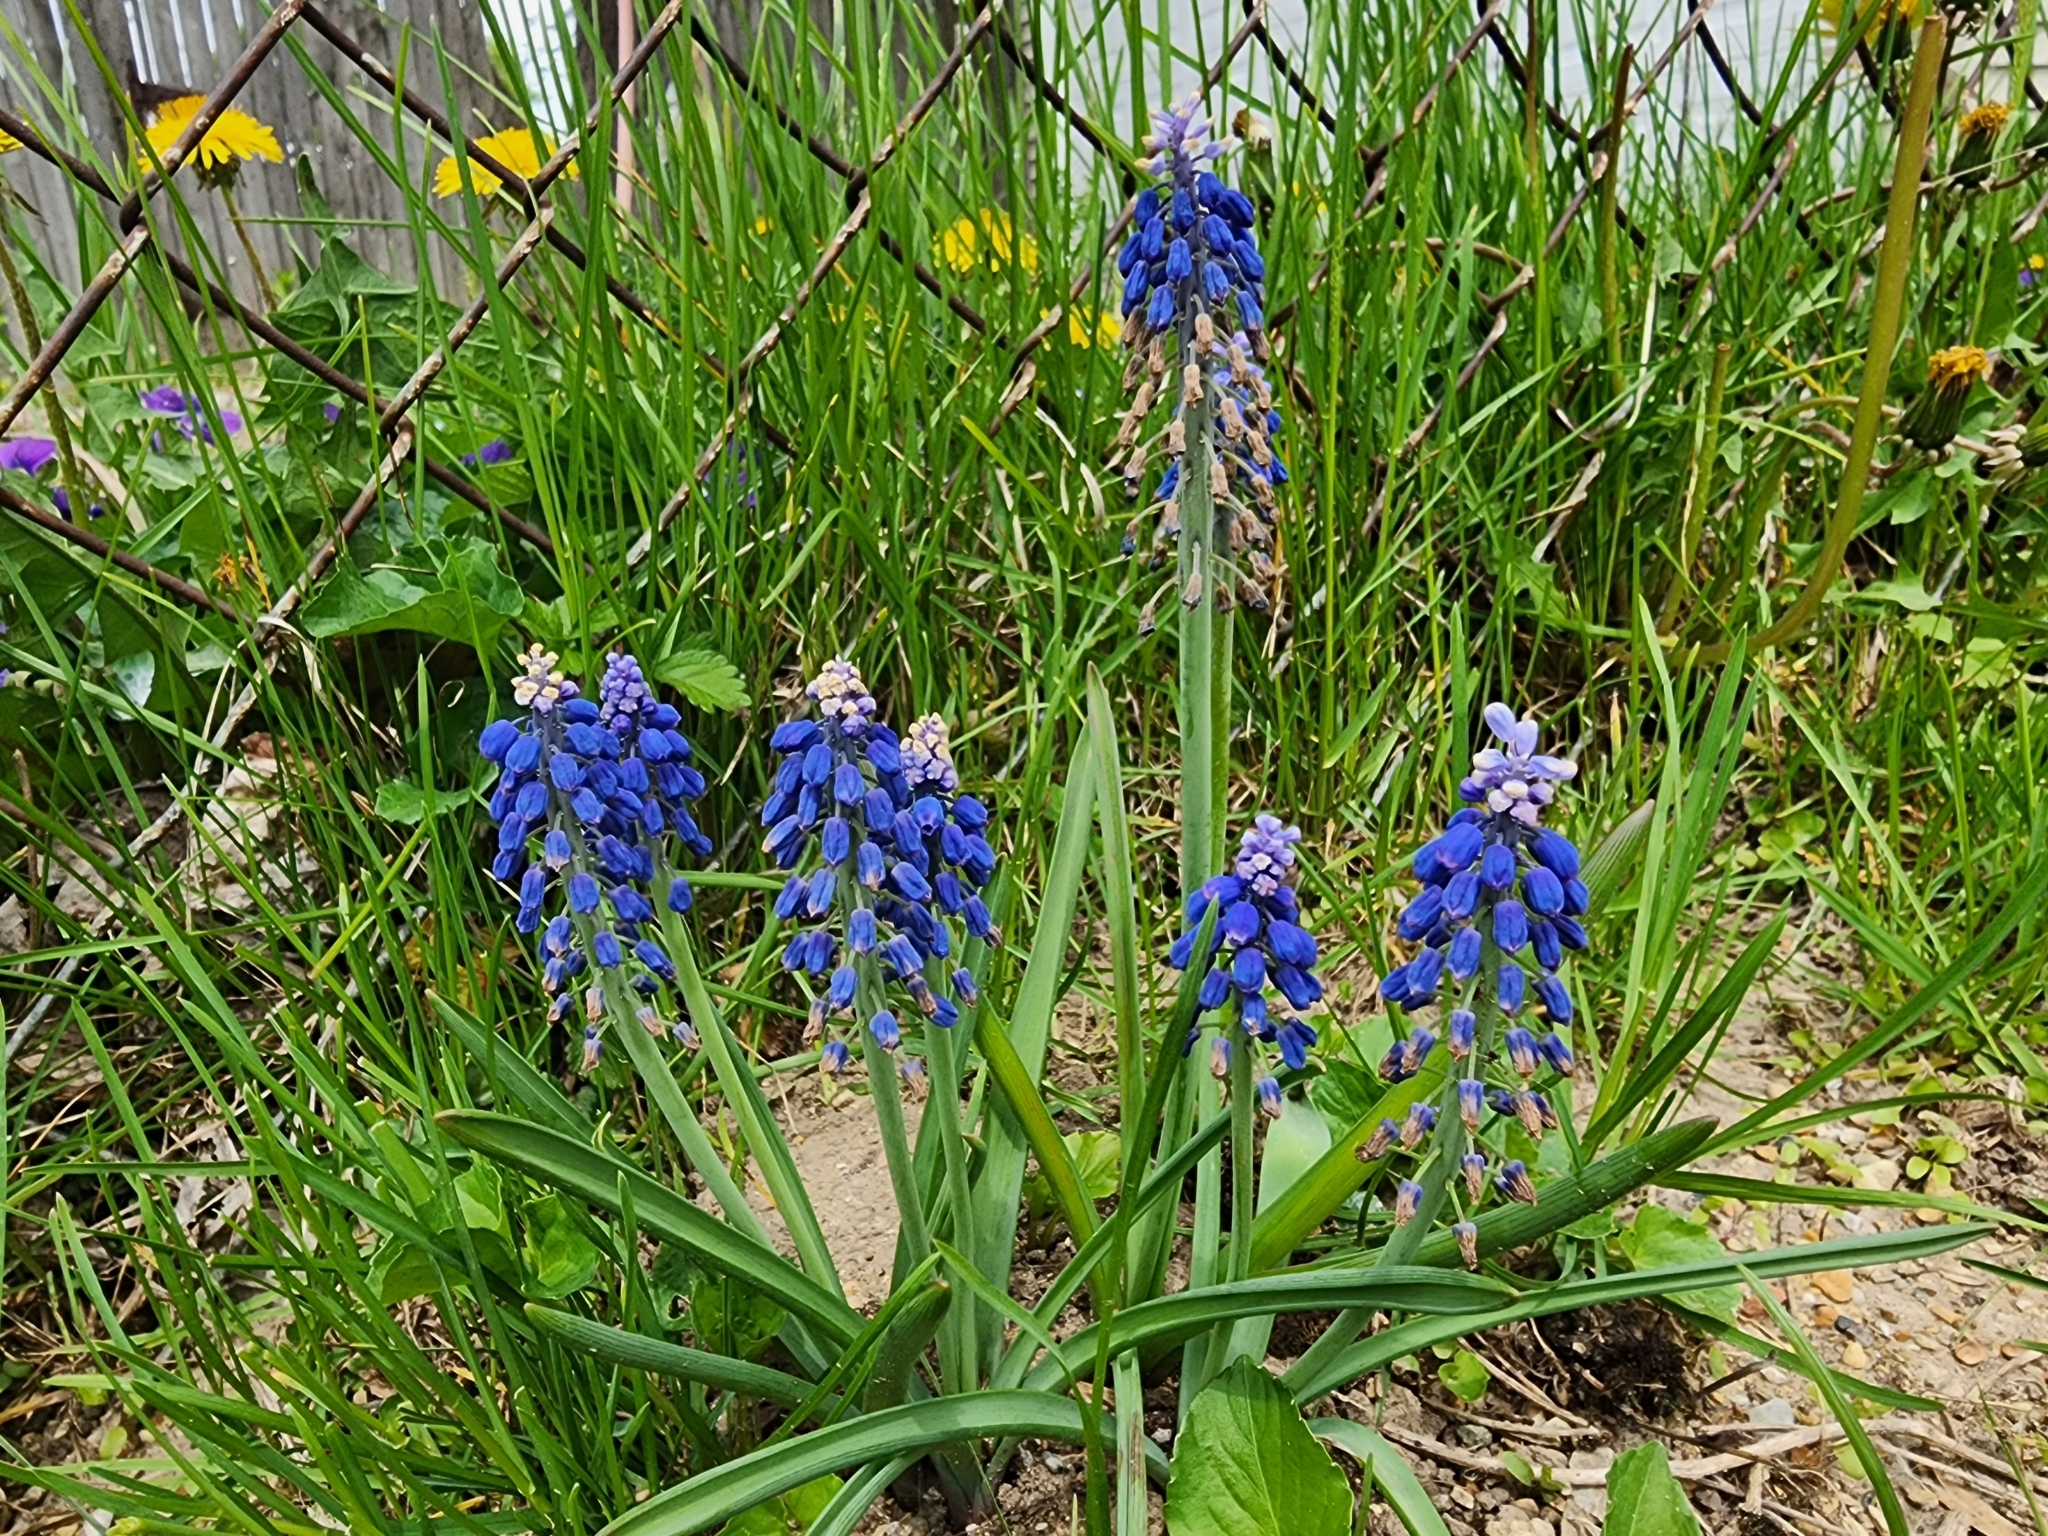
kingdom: Plantae
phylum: Tracheophyta
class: Liliopsida
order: Asparagales
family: Asparagaceae
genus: Muscari
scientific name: Muscari
